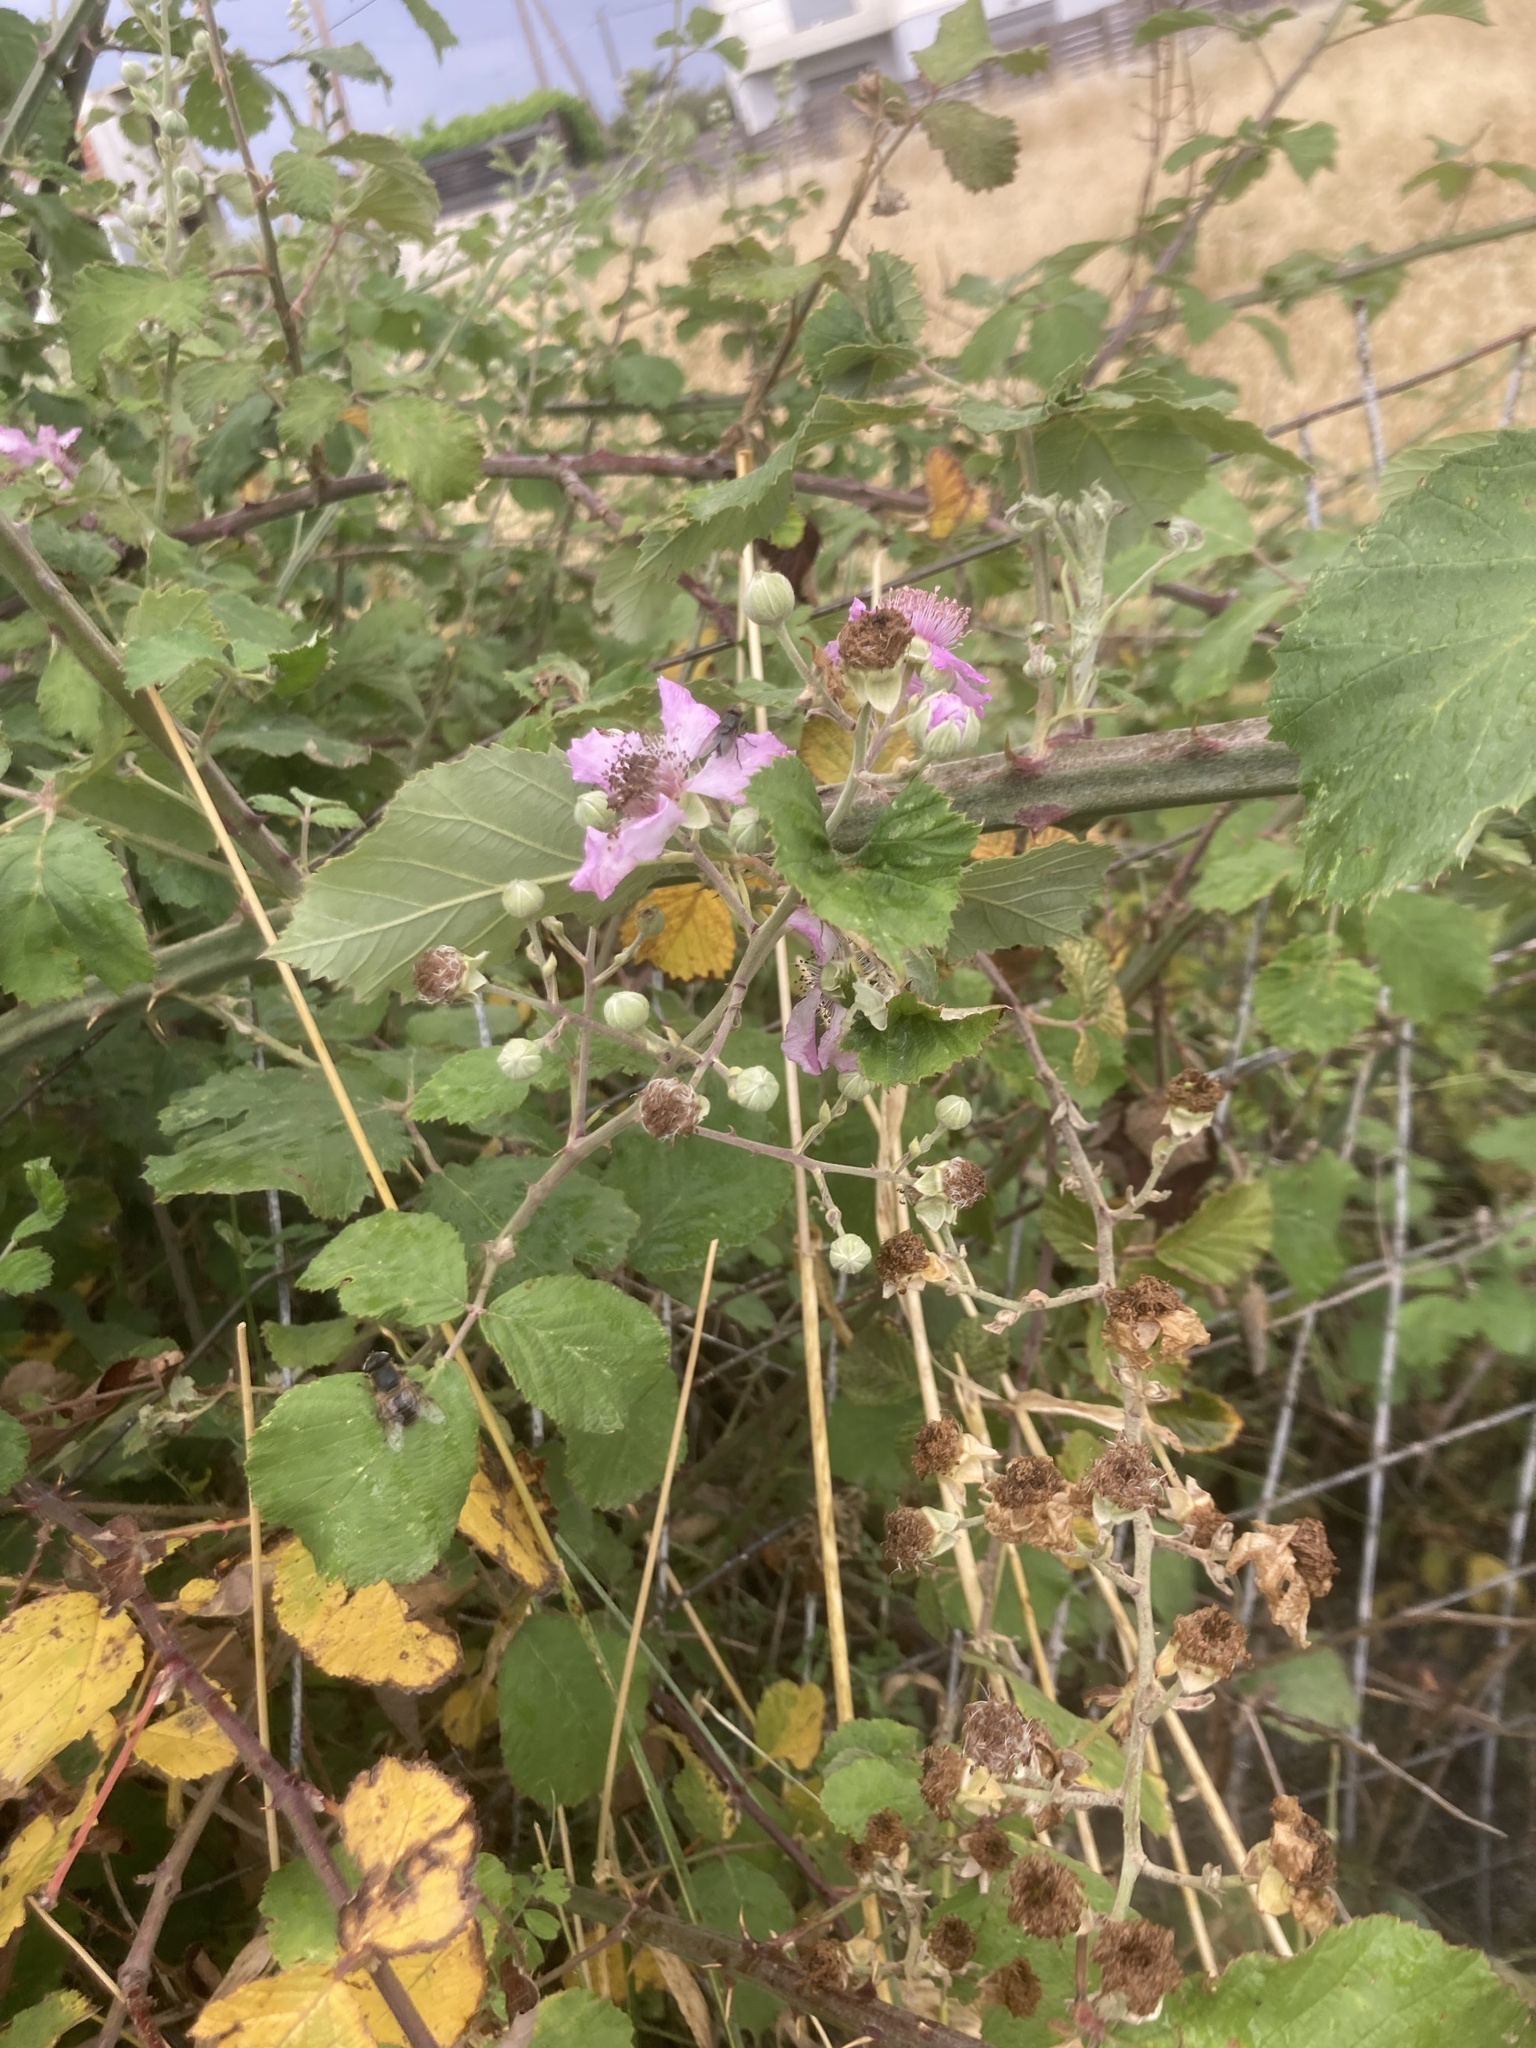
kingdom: Plantae
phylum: Tracheophyta
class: Magnoliopsida
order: Rosales
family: Rosaceae
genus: Rubus
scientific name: Rubus sanctus
